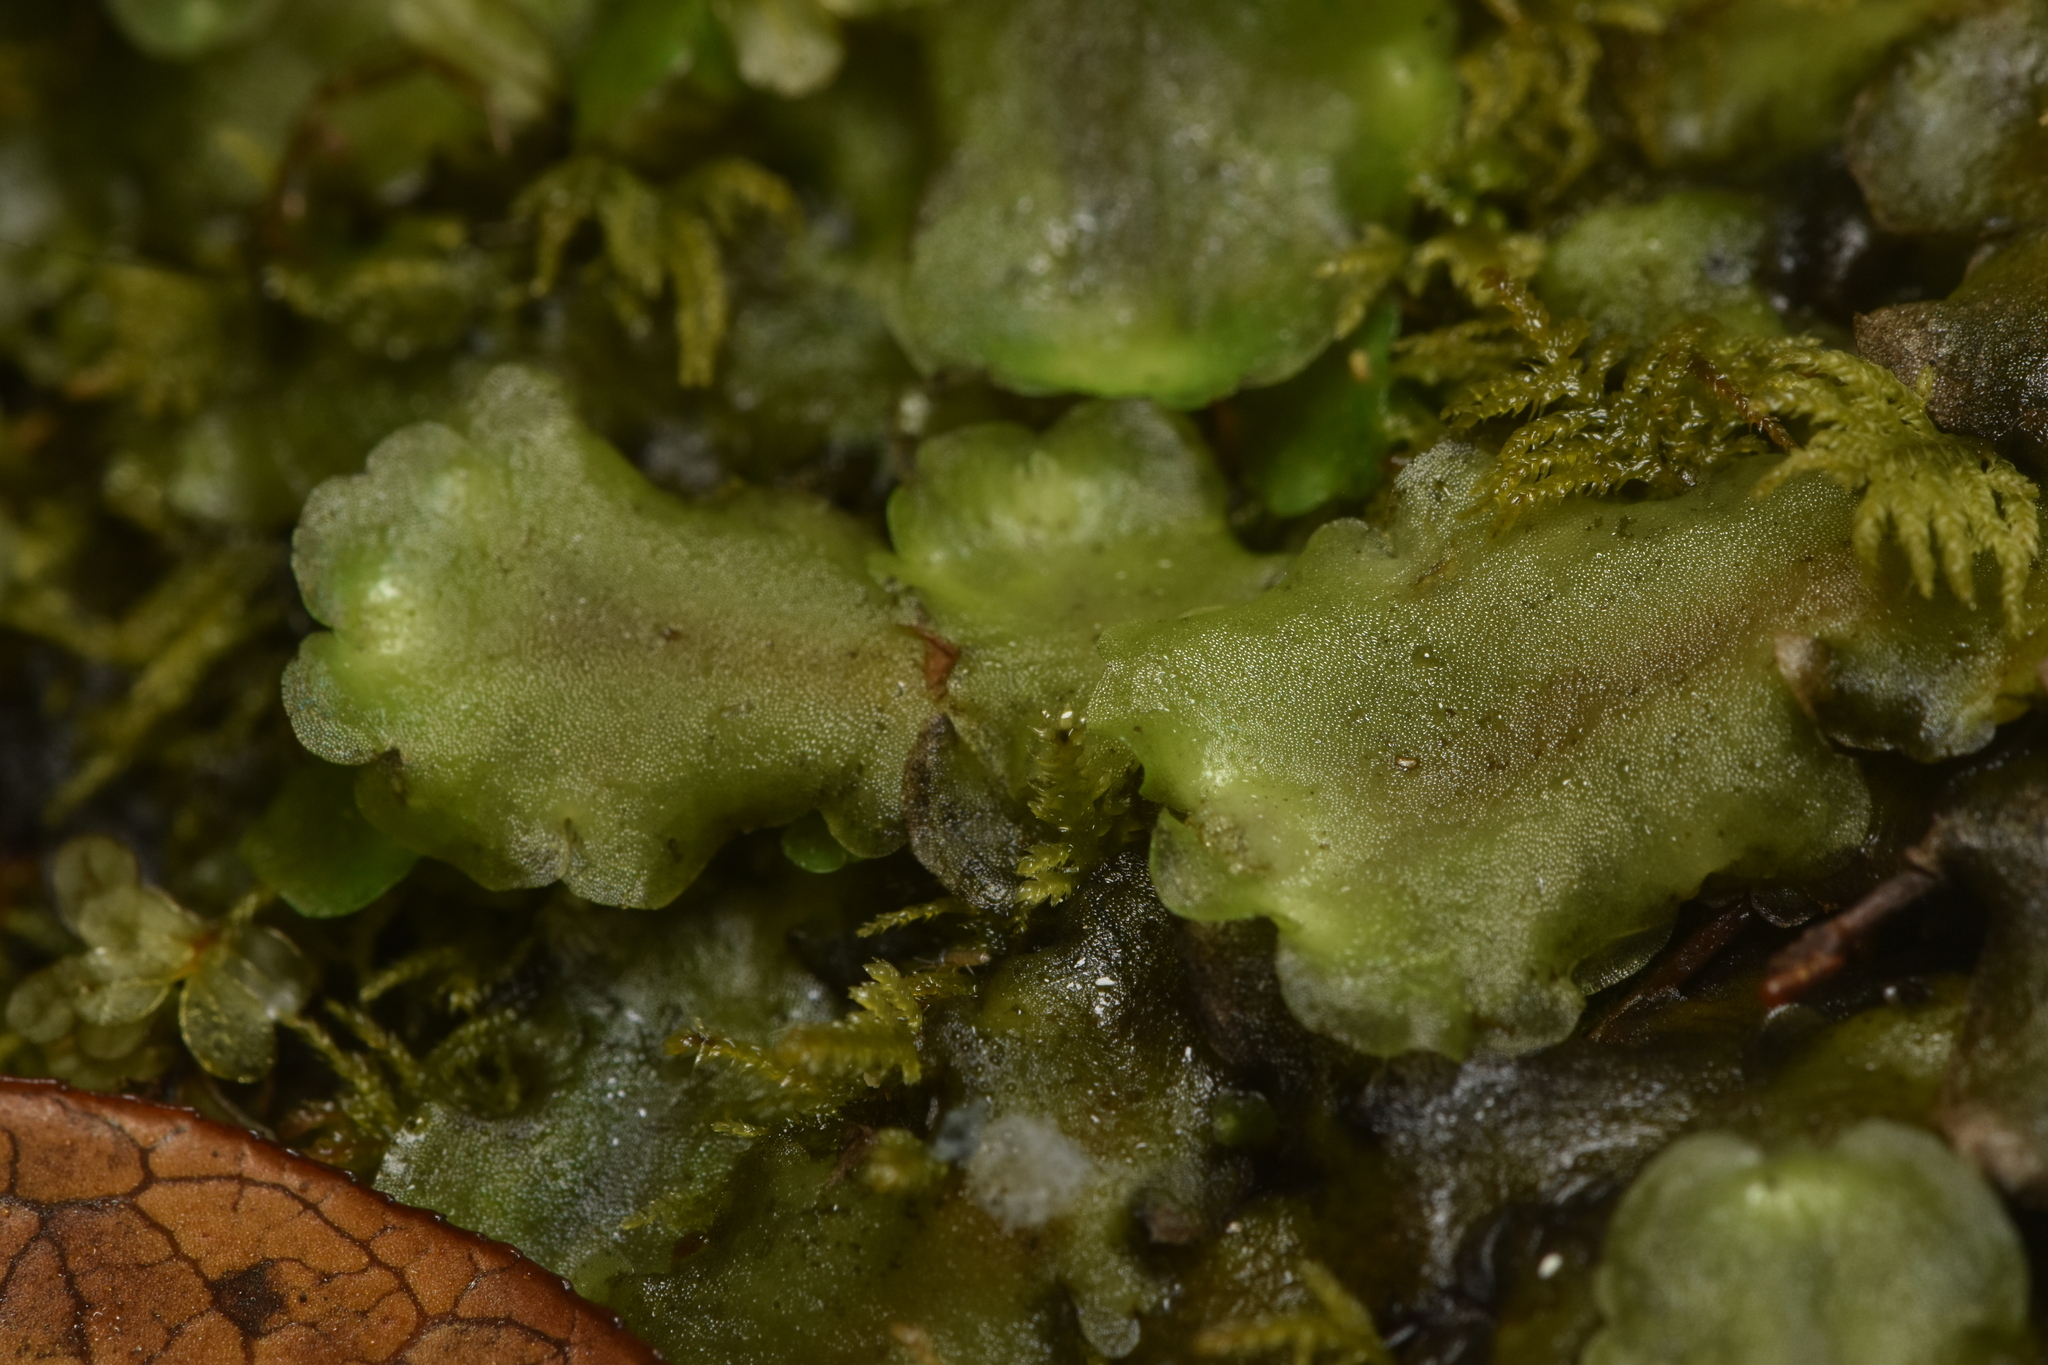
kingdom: Plantae
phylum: Marchantiophyta
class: Jungermanniopsida
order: Pelliales
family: Pelliaceae
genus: Pellia
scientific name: Pellia neesiana
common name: Nees  pellia
